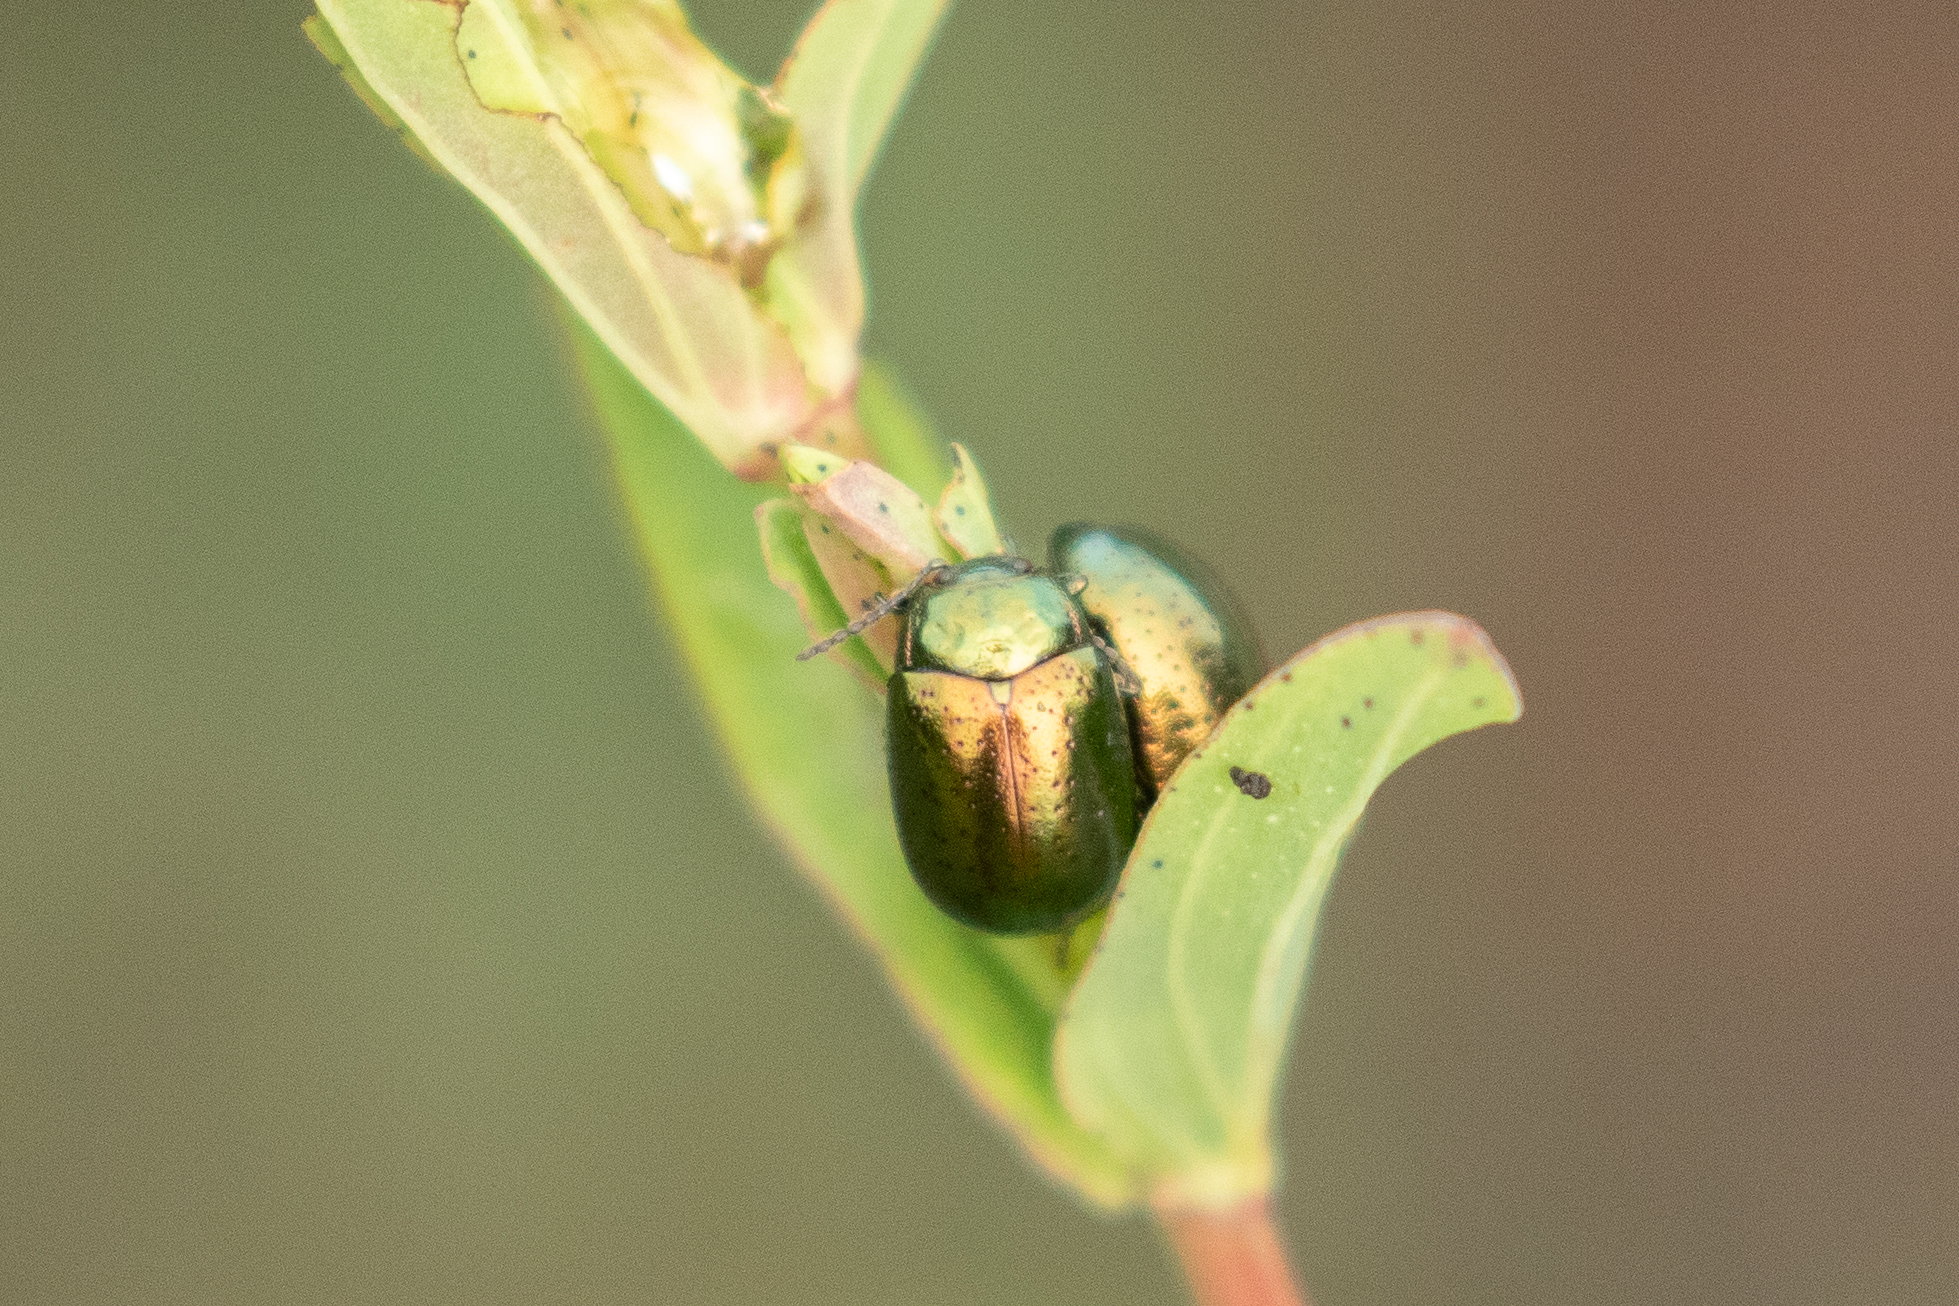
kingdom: Animalia
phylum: Arthropoda
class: Insecta
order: Coleoptera
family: Chrysomelidae
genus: Chrysolina
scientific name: Chrysolina hyperici
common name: St. johnswort beetle
